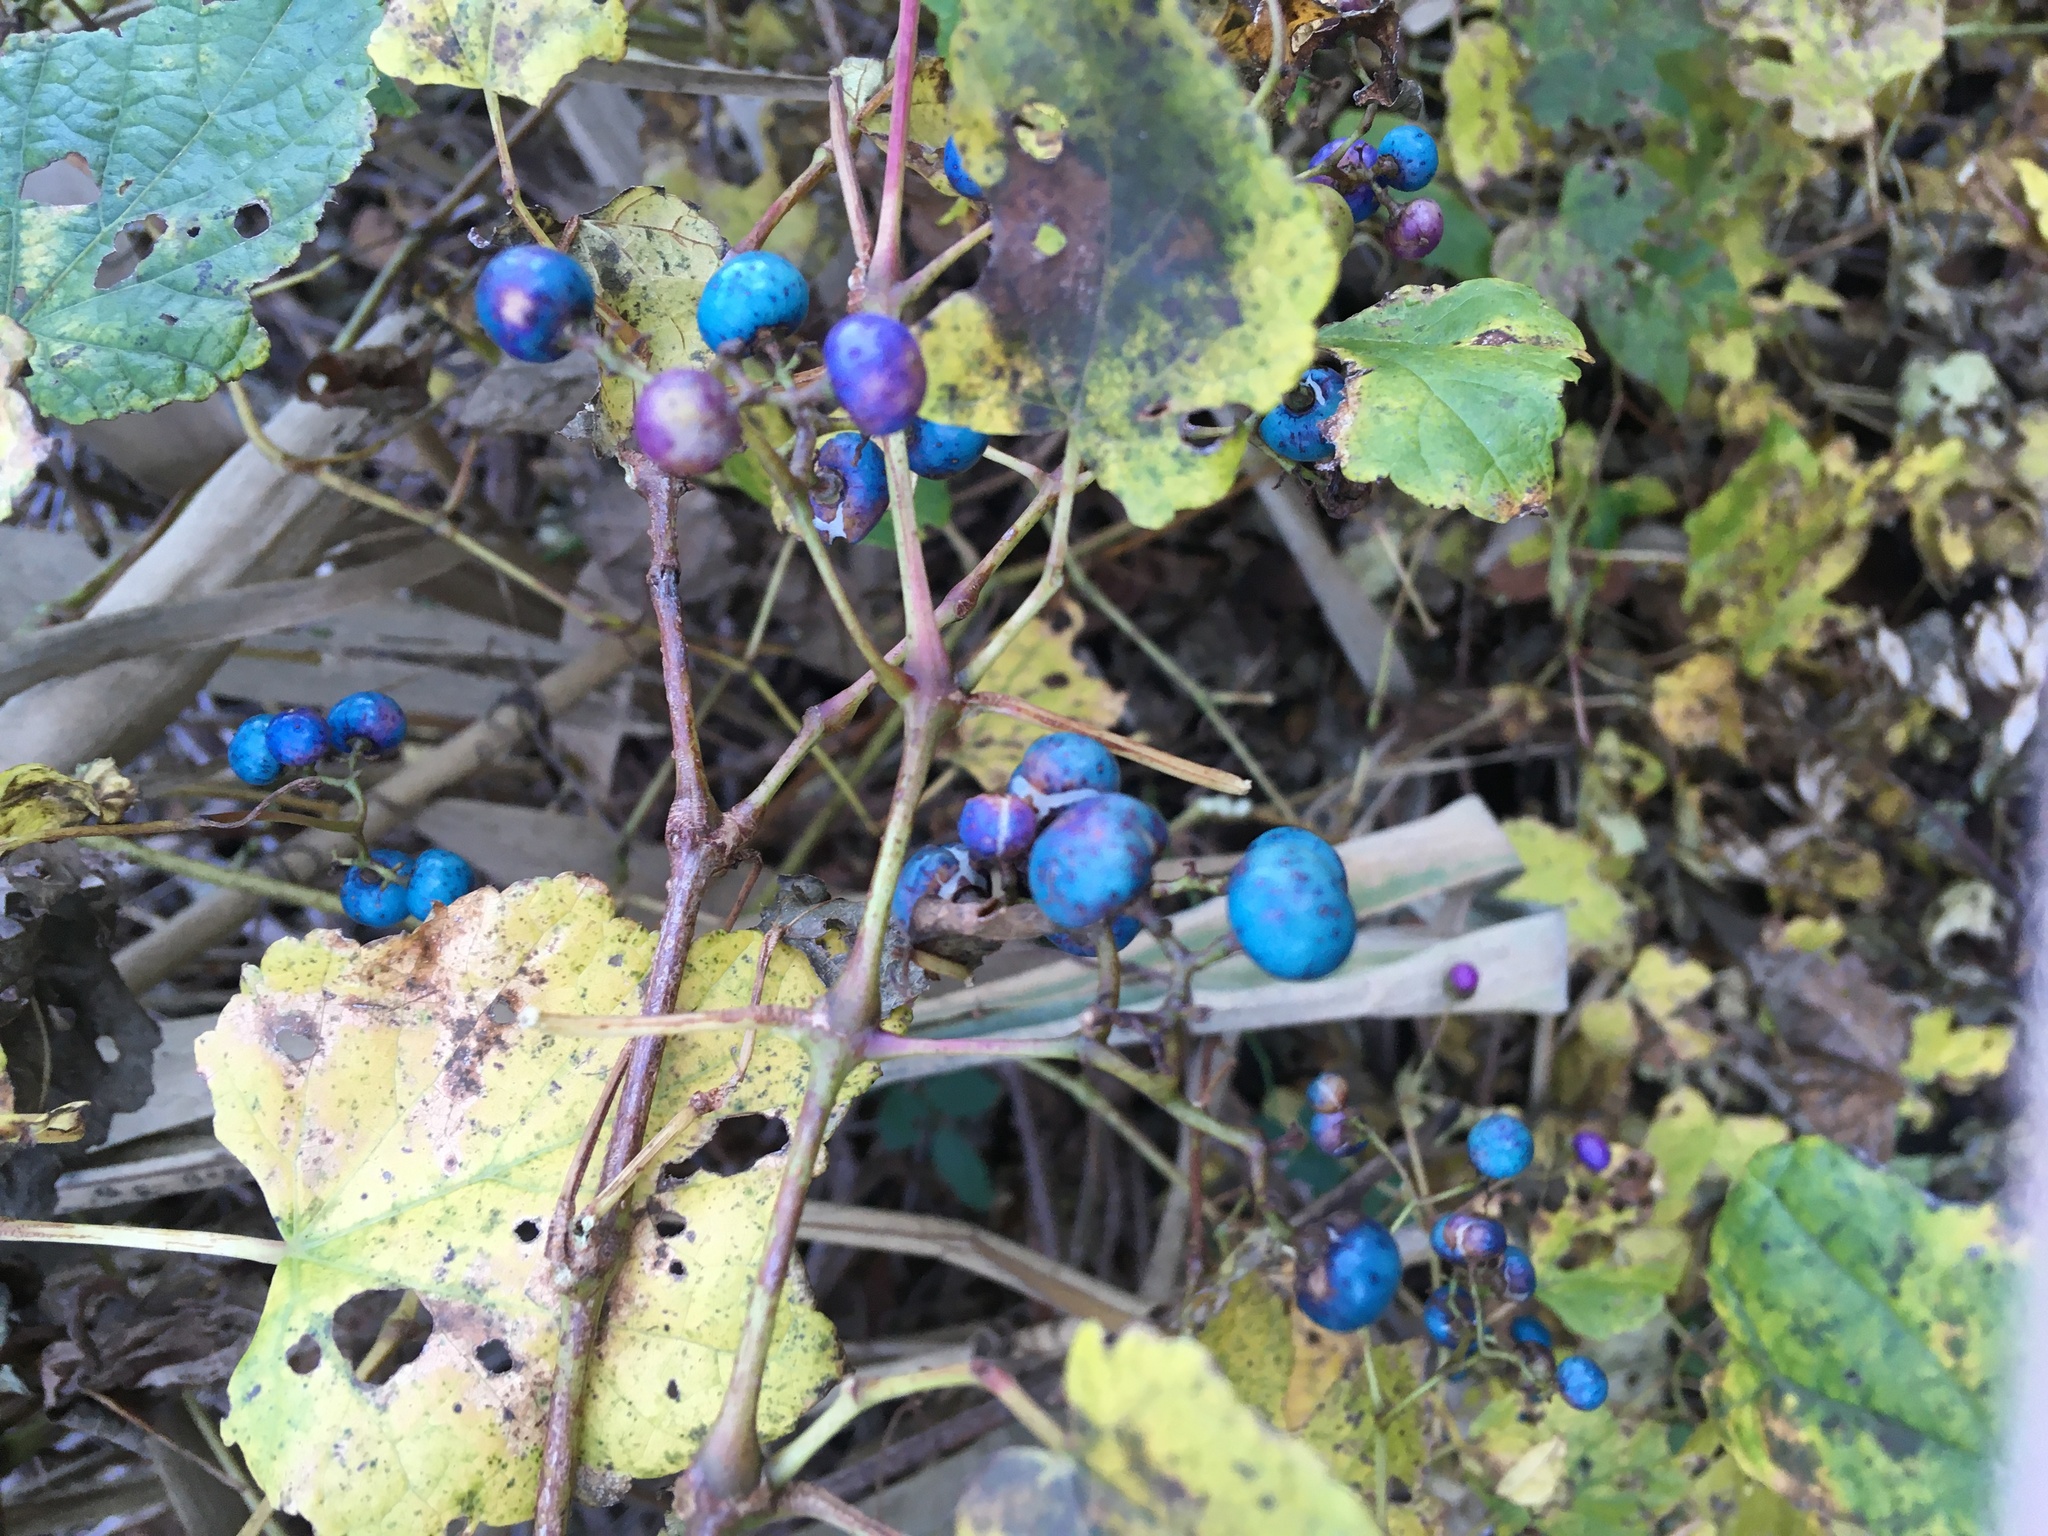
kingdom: Plantae
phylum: Tracheophyta
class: Magnoliopsida
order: Vitales
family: Vitaceae
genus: Ampelopsis
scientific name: Ampelopsis glandulosa
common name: Amur peppervine
